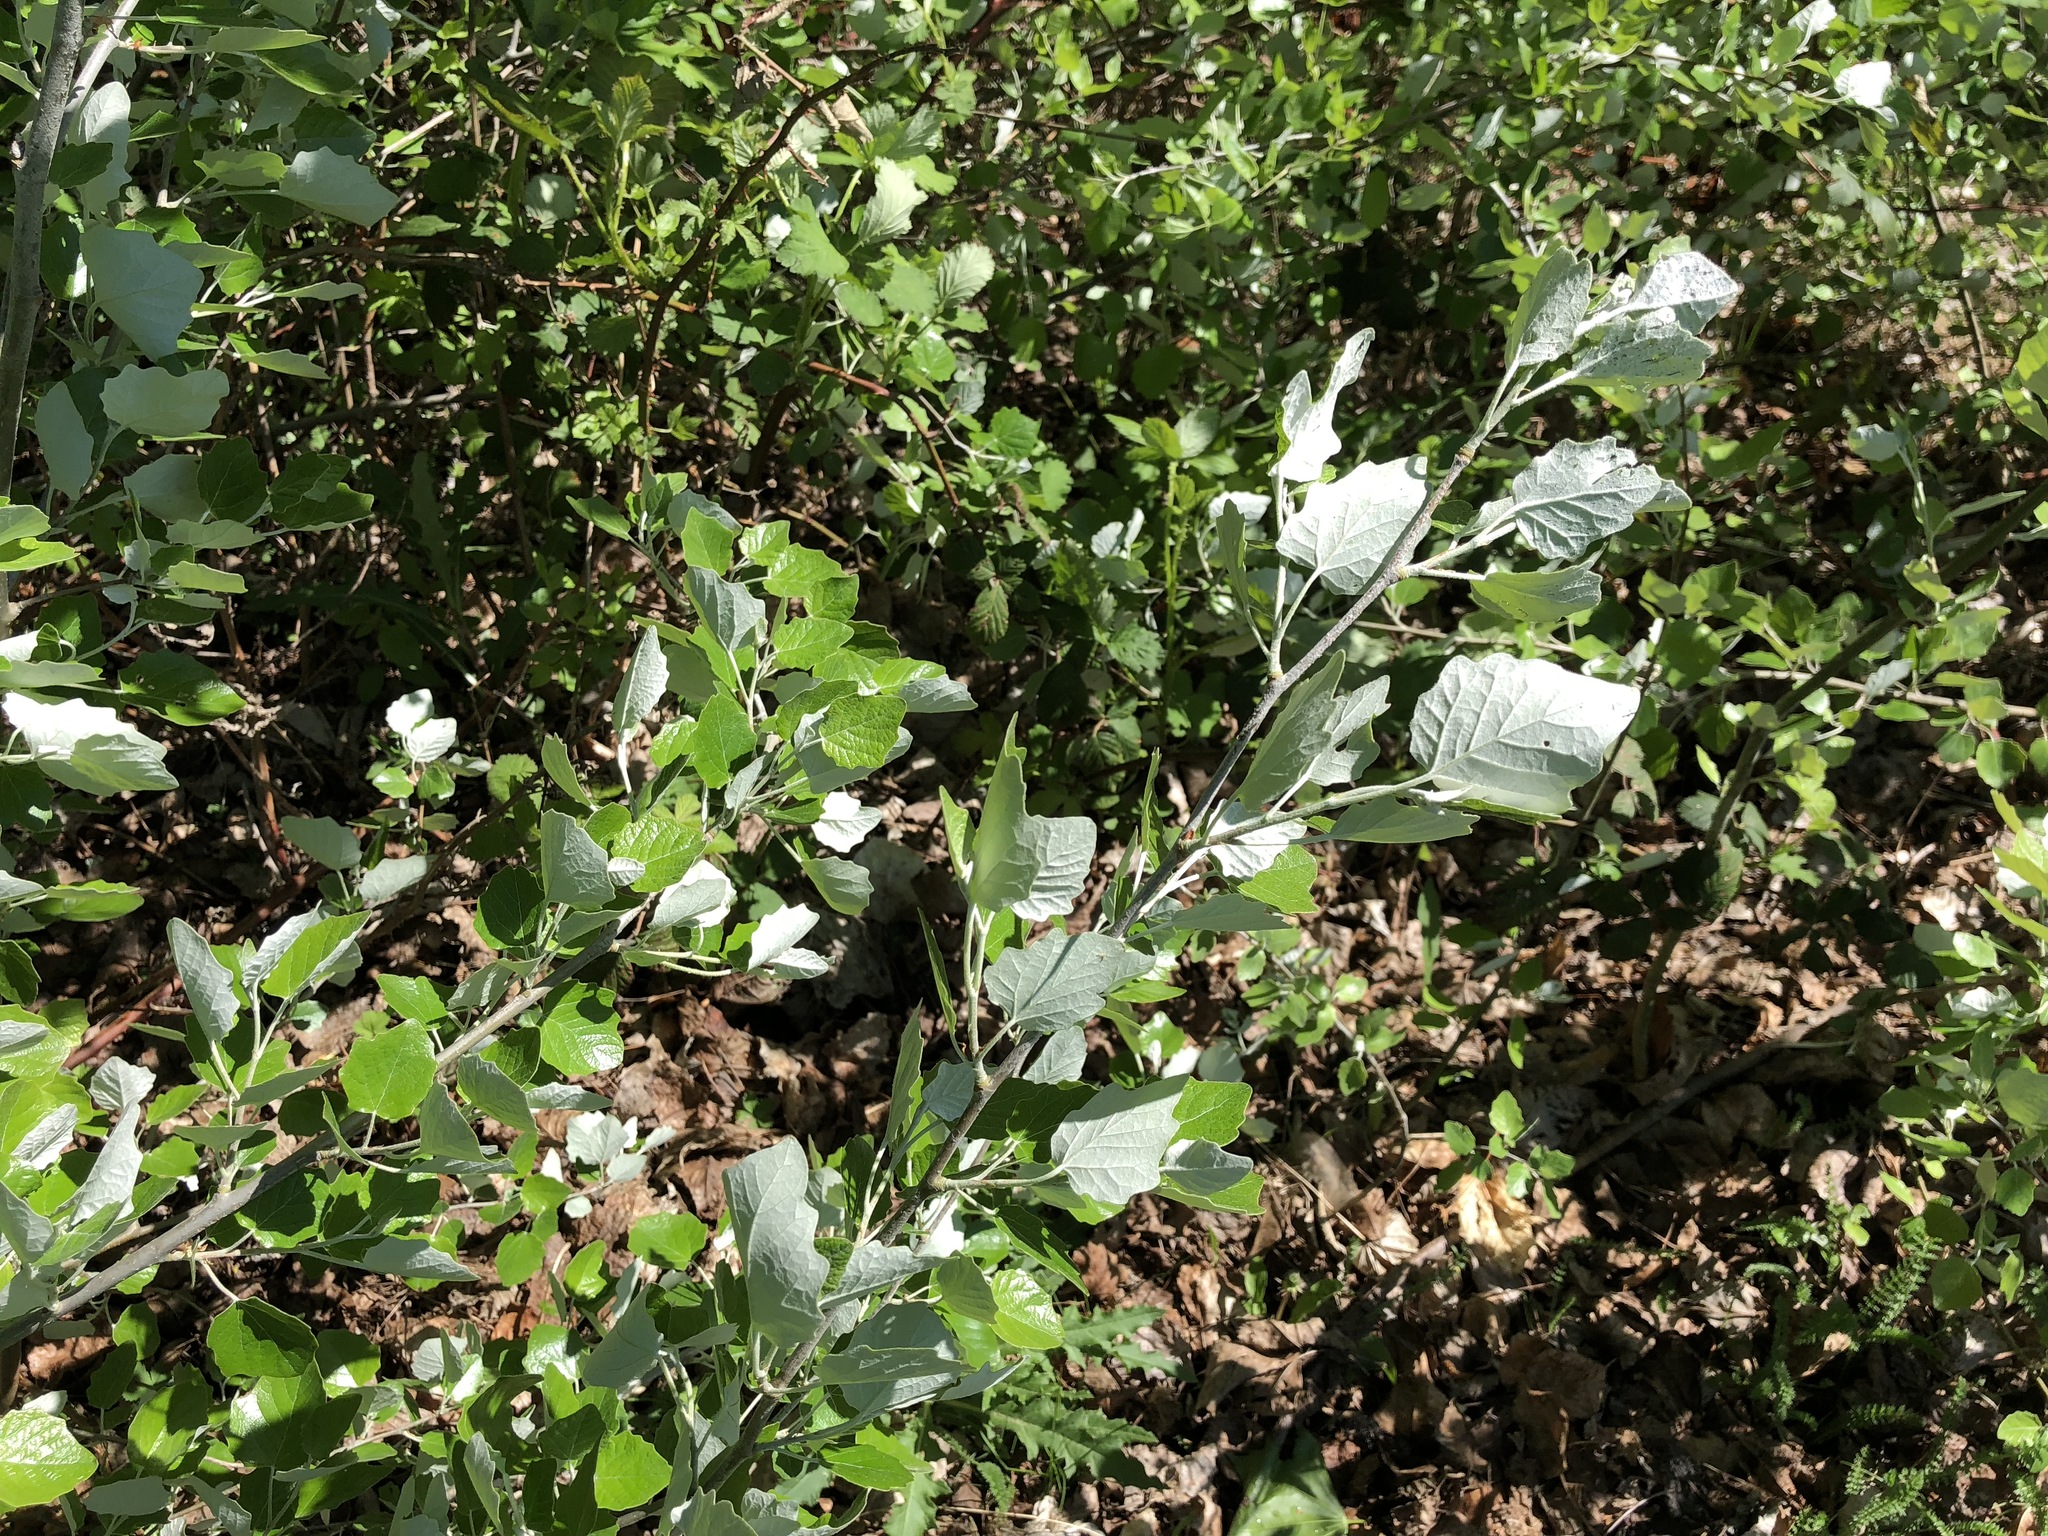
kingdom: Plantae
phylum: Tracheophyta
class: Magnoliopsida
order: Malpighiales
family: Salicaceae
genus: Populus
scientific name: Populus alba
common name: White poplar
